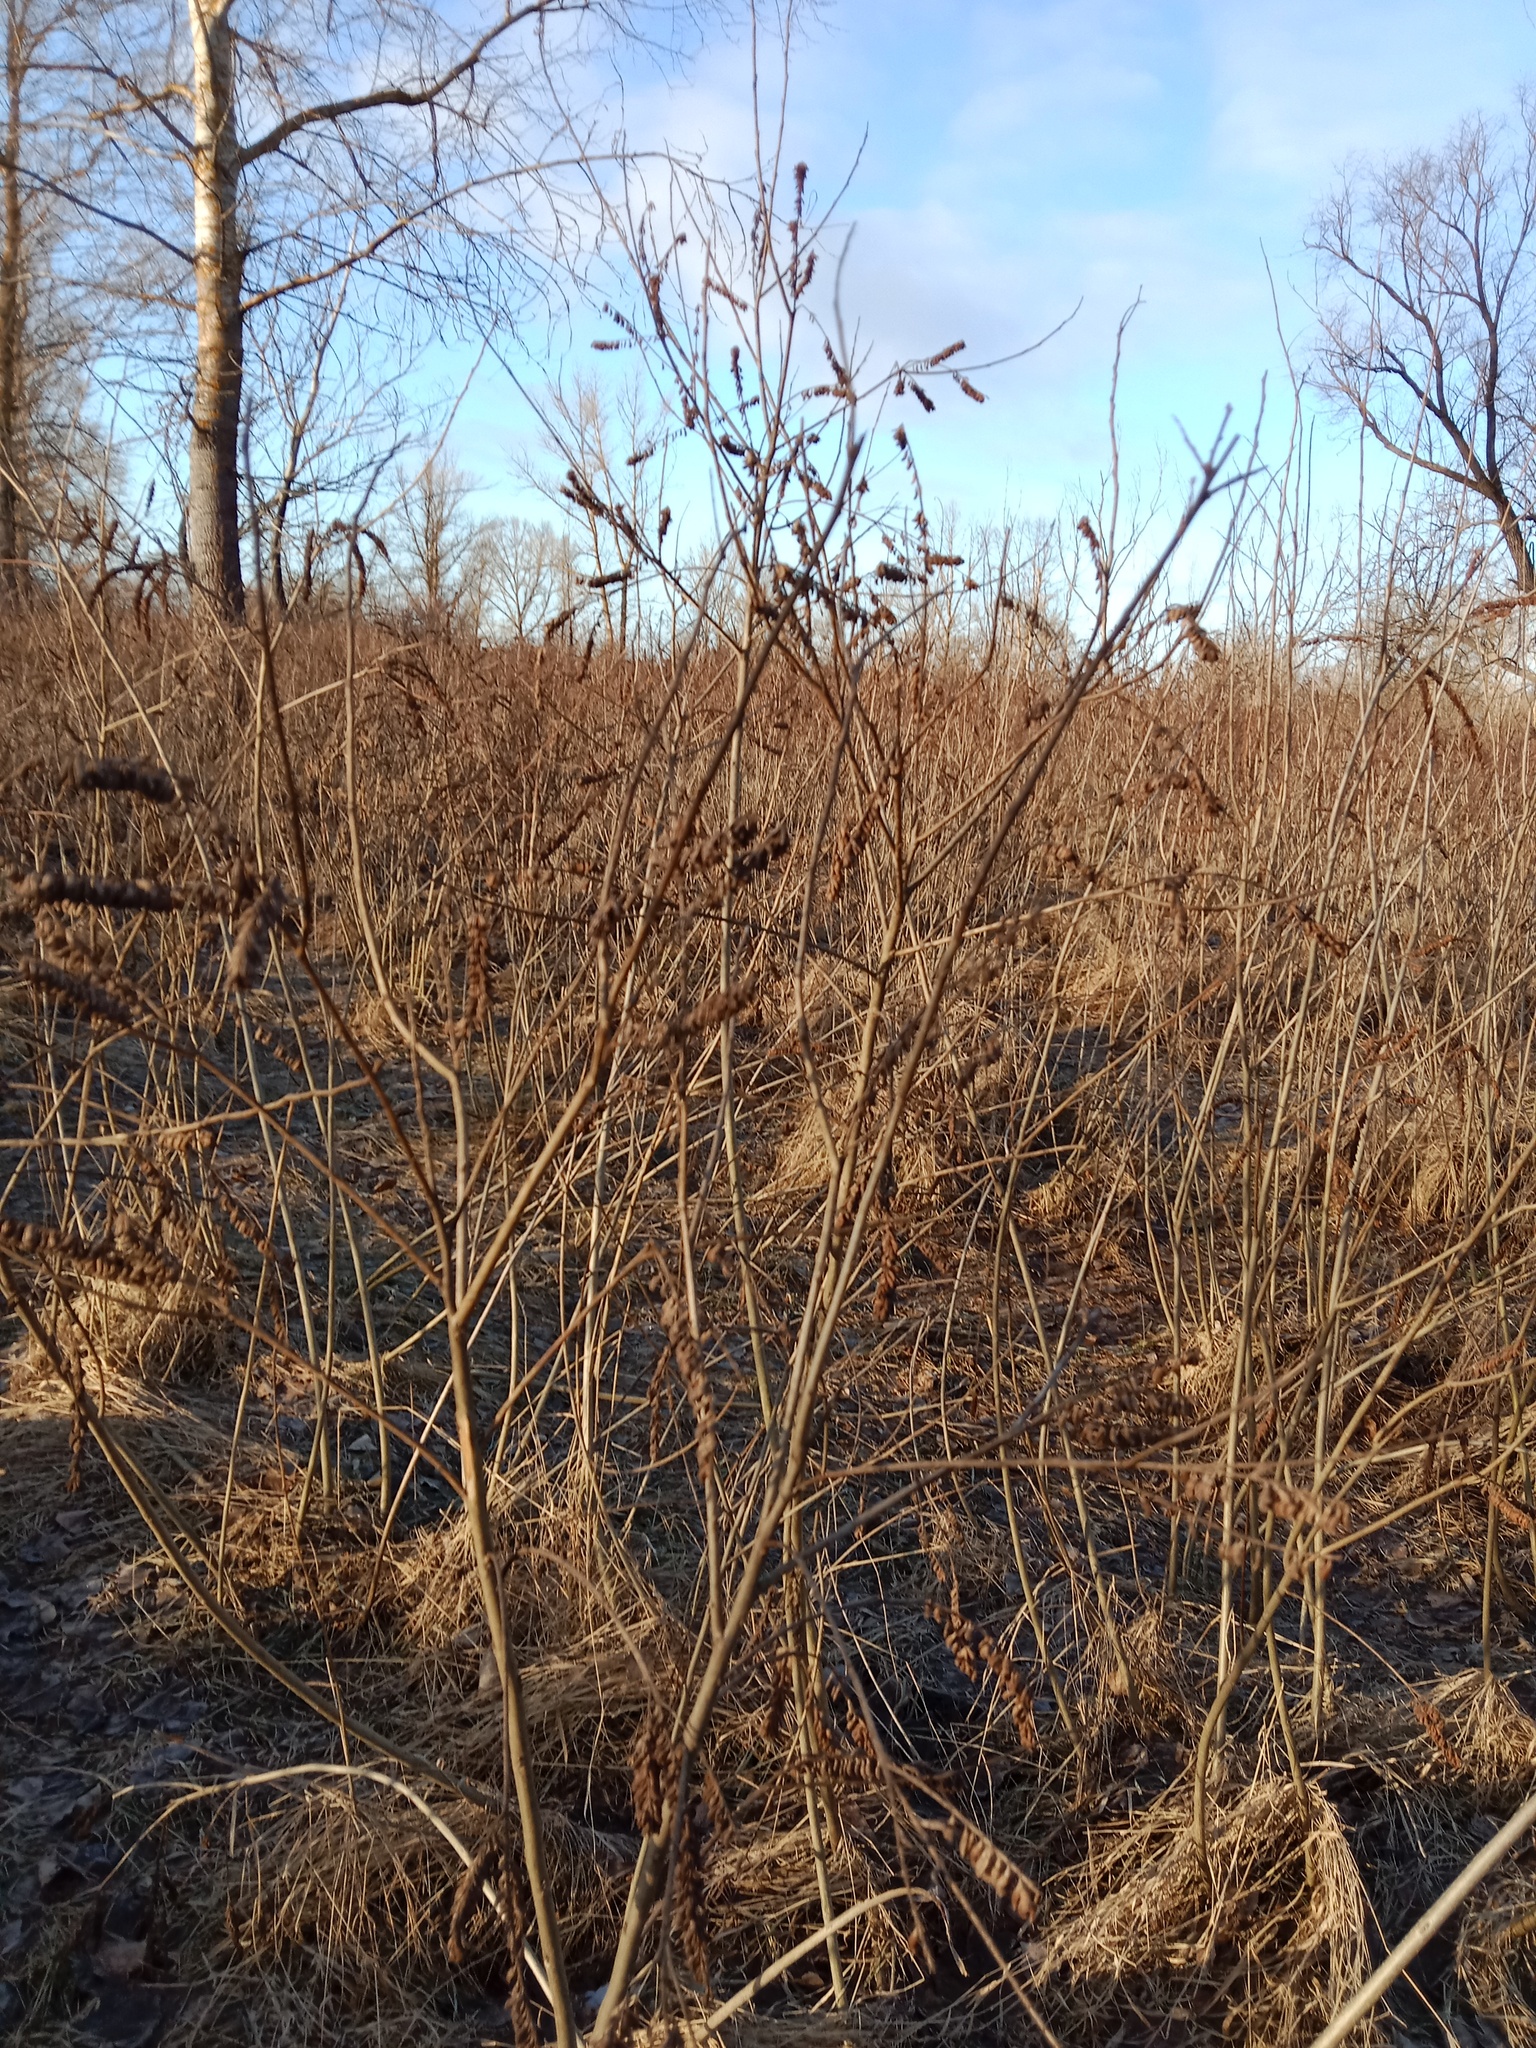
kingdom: Plantae
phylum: Tracheophyta
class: Magnoliopsida
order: Fabales
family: Fabaceae
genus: Amorpha
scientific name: Amorpha fruticosa
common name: False indigo
